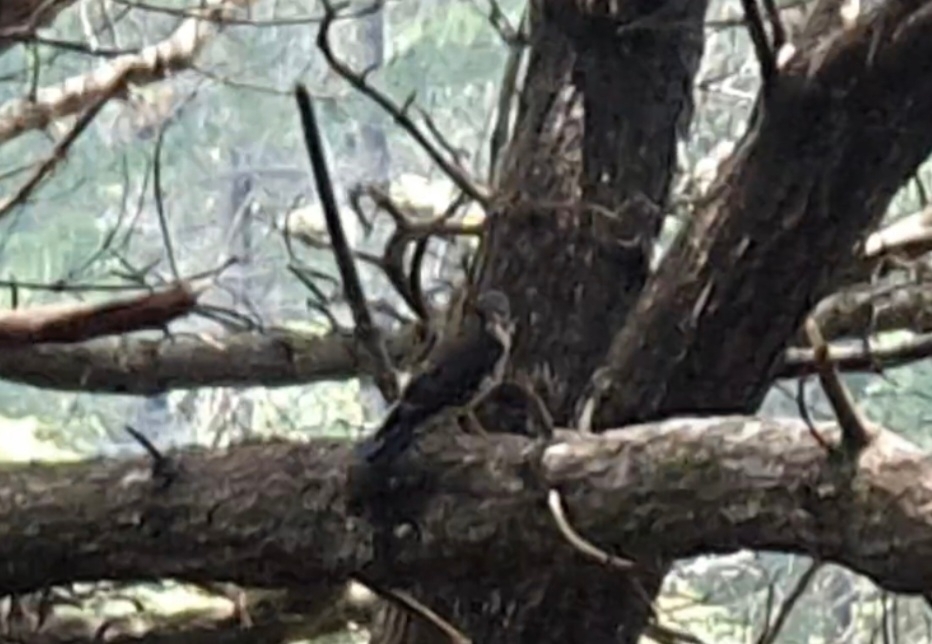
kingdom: Animalia
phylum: Chordata
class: Aves
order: Falconiformes
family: Falconidae
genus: Falco
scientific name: Falco novaeseelandiae
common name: New zealand falcon
